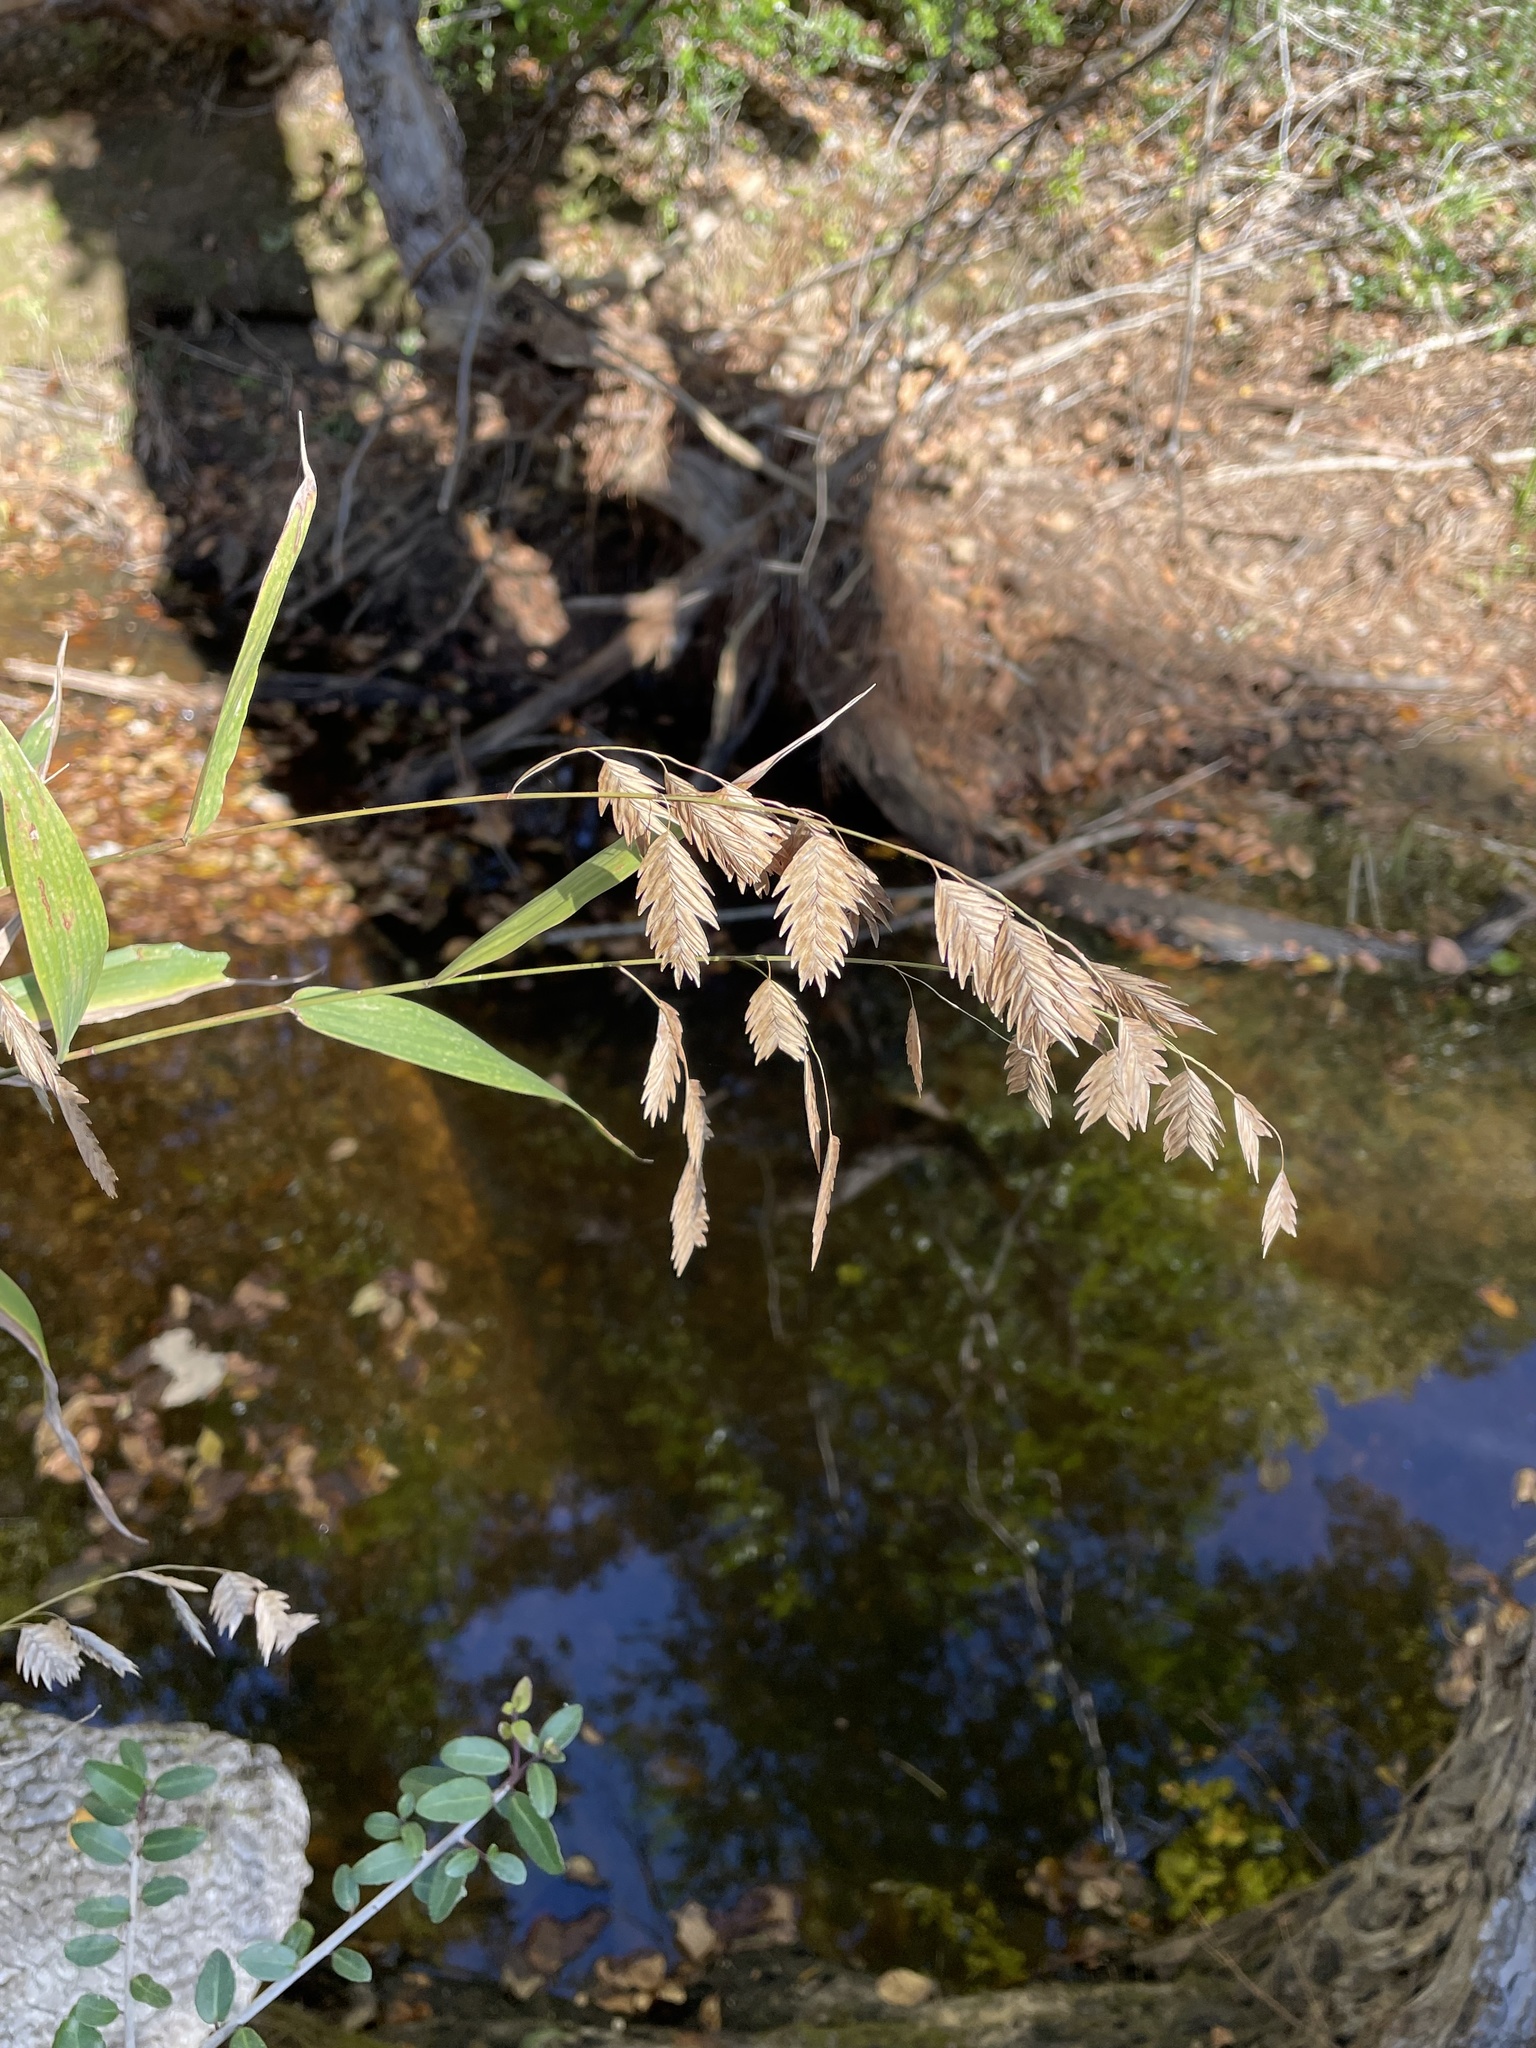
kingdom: Plantae
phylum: Tracheophyta
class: Liliopsida
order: Poales
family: Poaceae
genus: Chasmanthium
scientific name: Chasmanthium latifolium
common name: Broad-leaved chasmanthium
